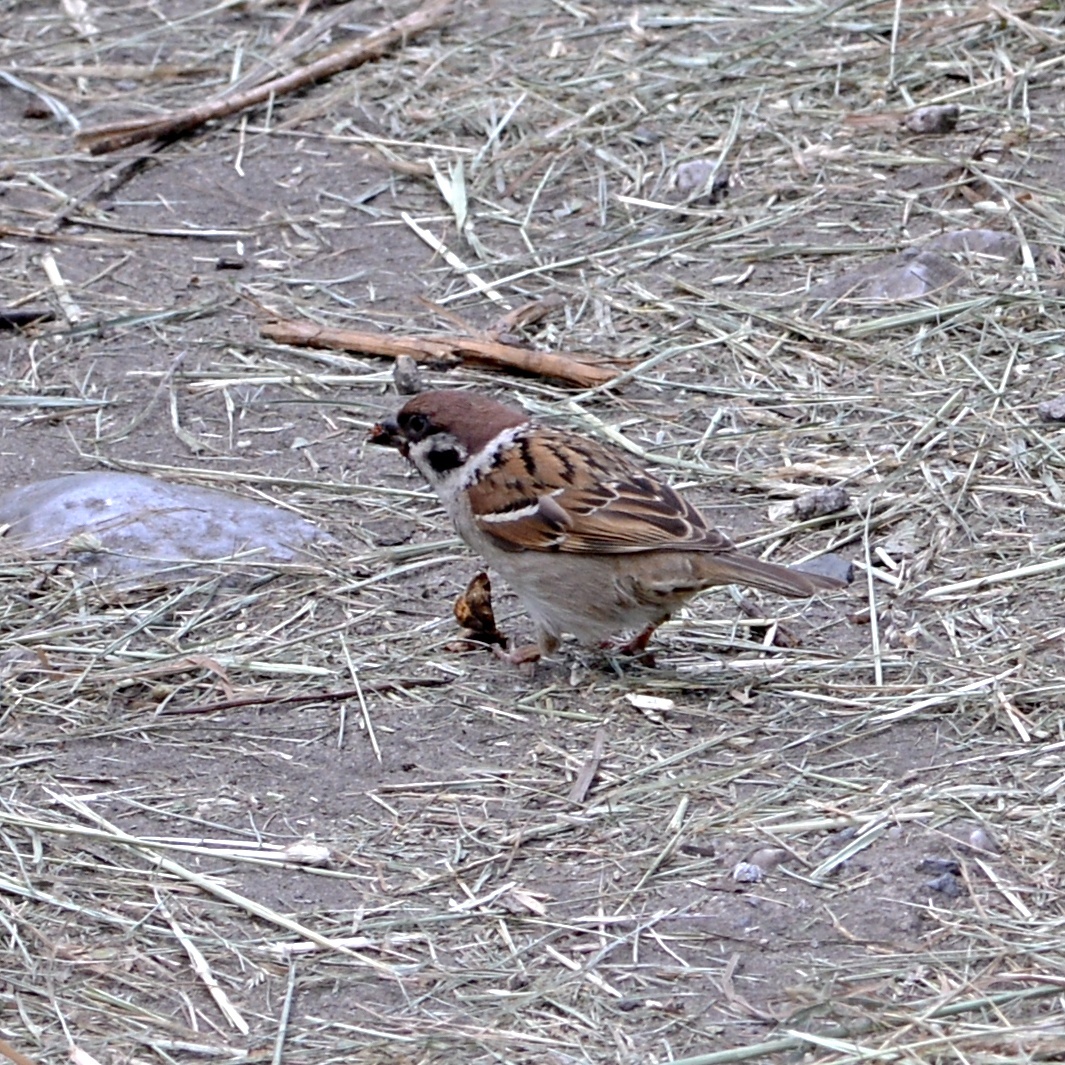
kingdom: Animalia
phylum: Chordata
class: Aves
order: Passeriformes
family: Passeridae
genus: Passer
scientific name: Passer montanus
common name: Eurasian tree sparrow
